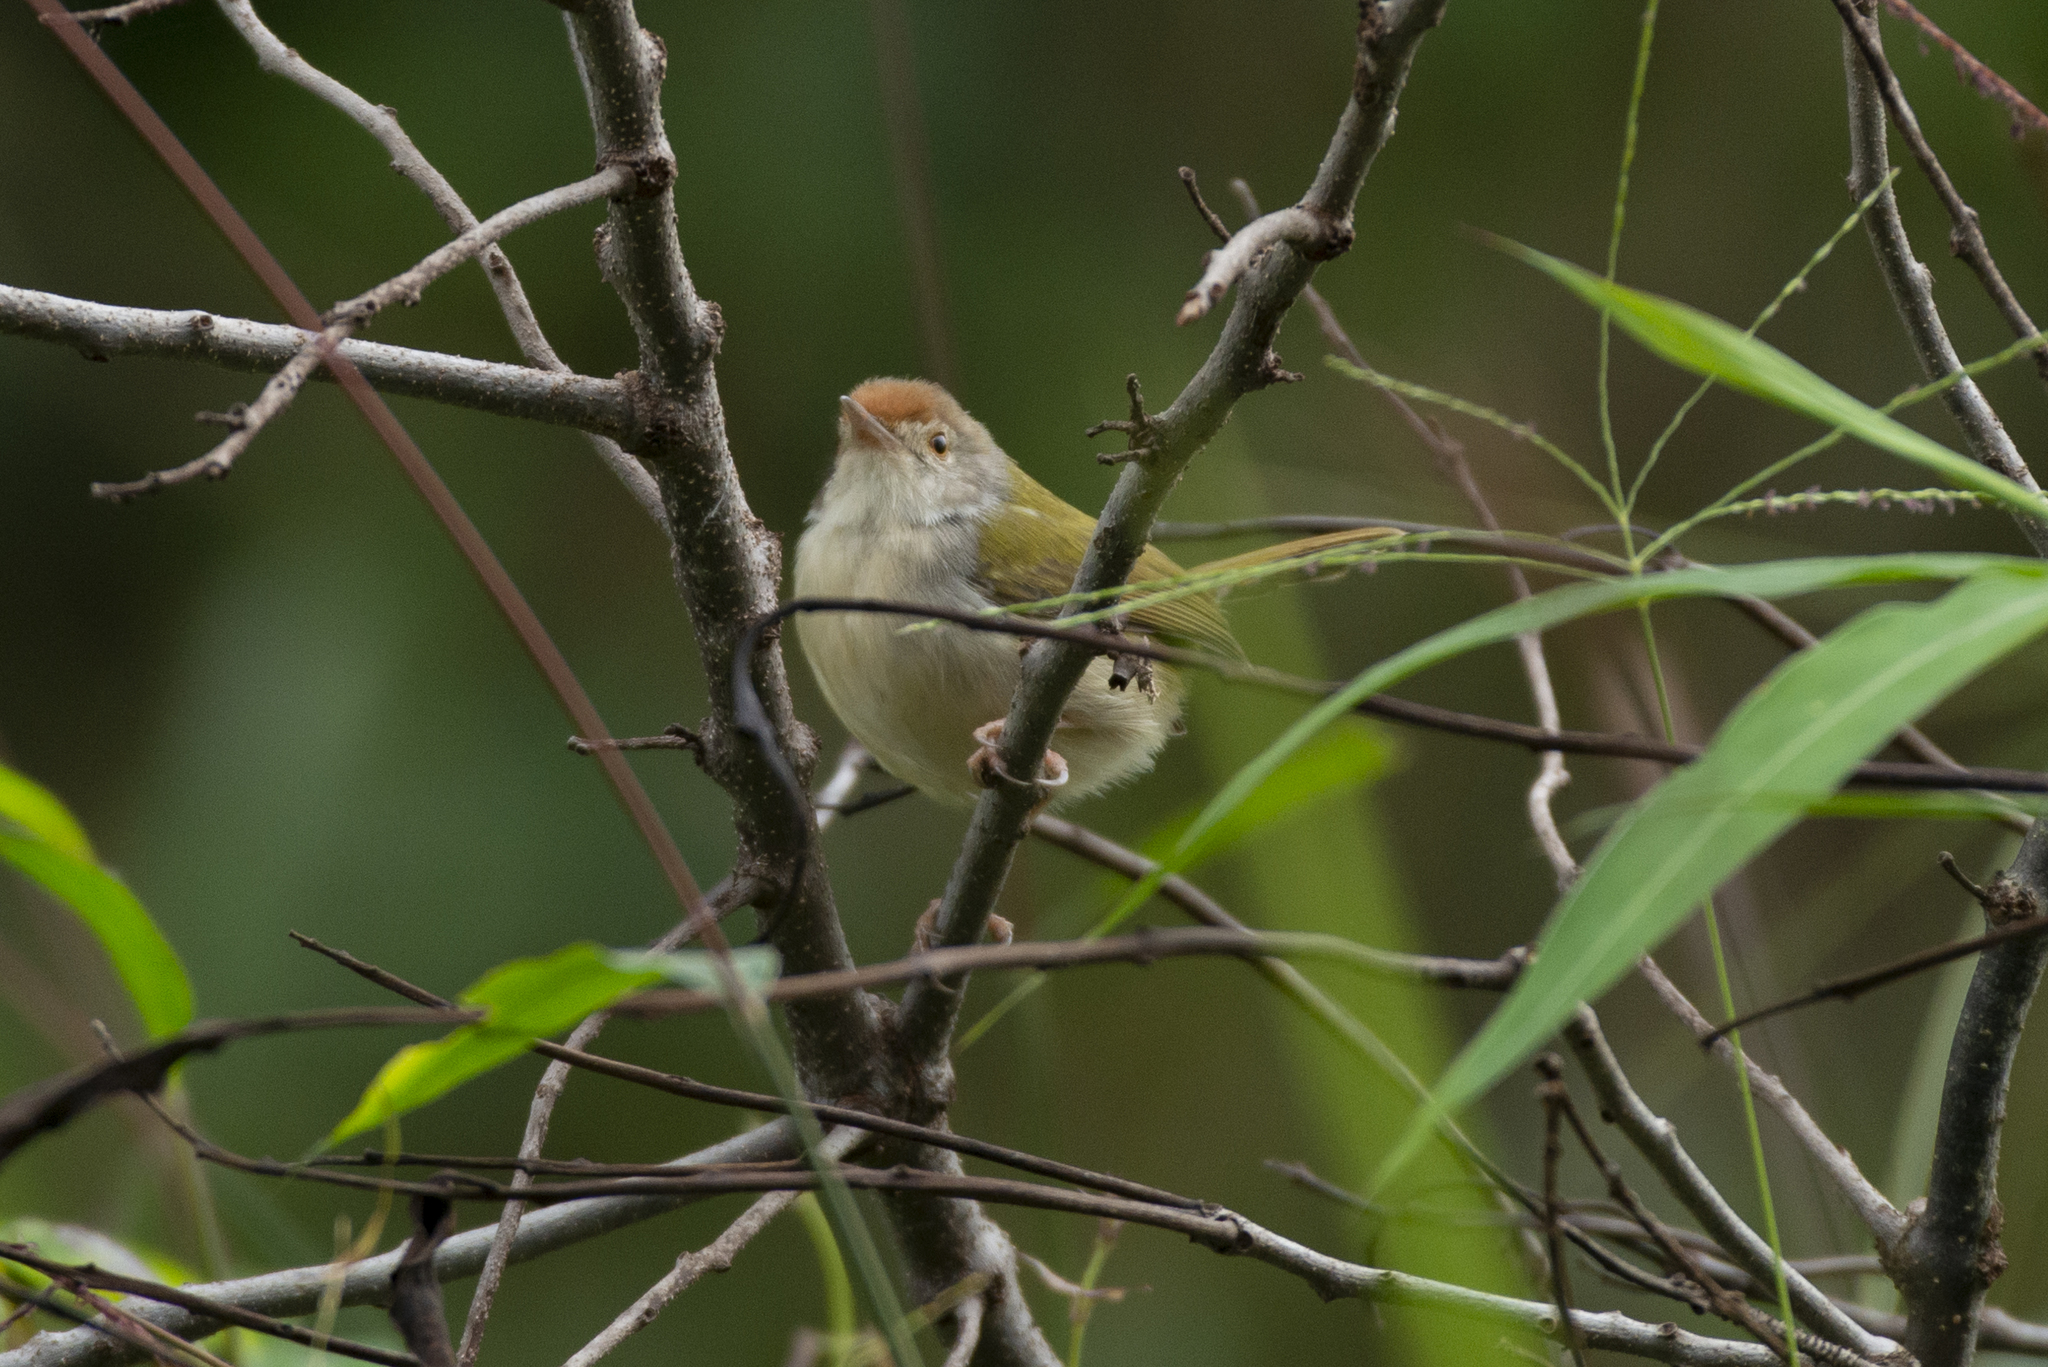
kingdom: Animalia
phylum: Chordata
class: Aves
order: Passeriformes
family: Cisticolidae
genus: Orthotomus
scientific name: Orthotomus sutorius
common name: Common tailorbird
